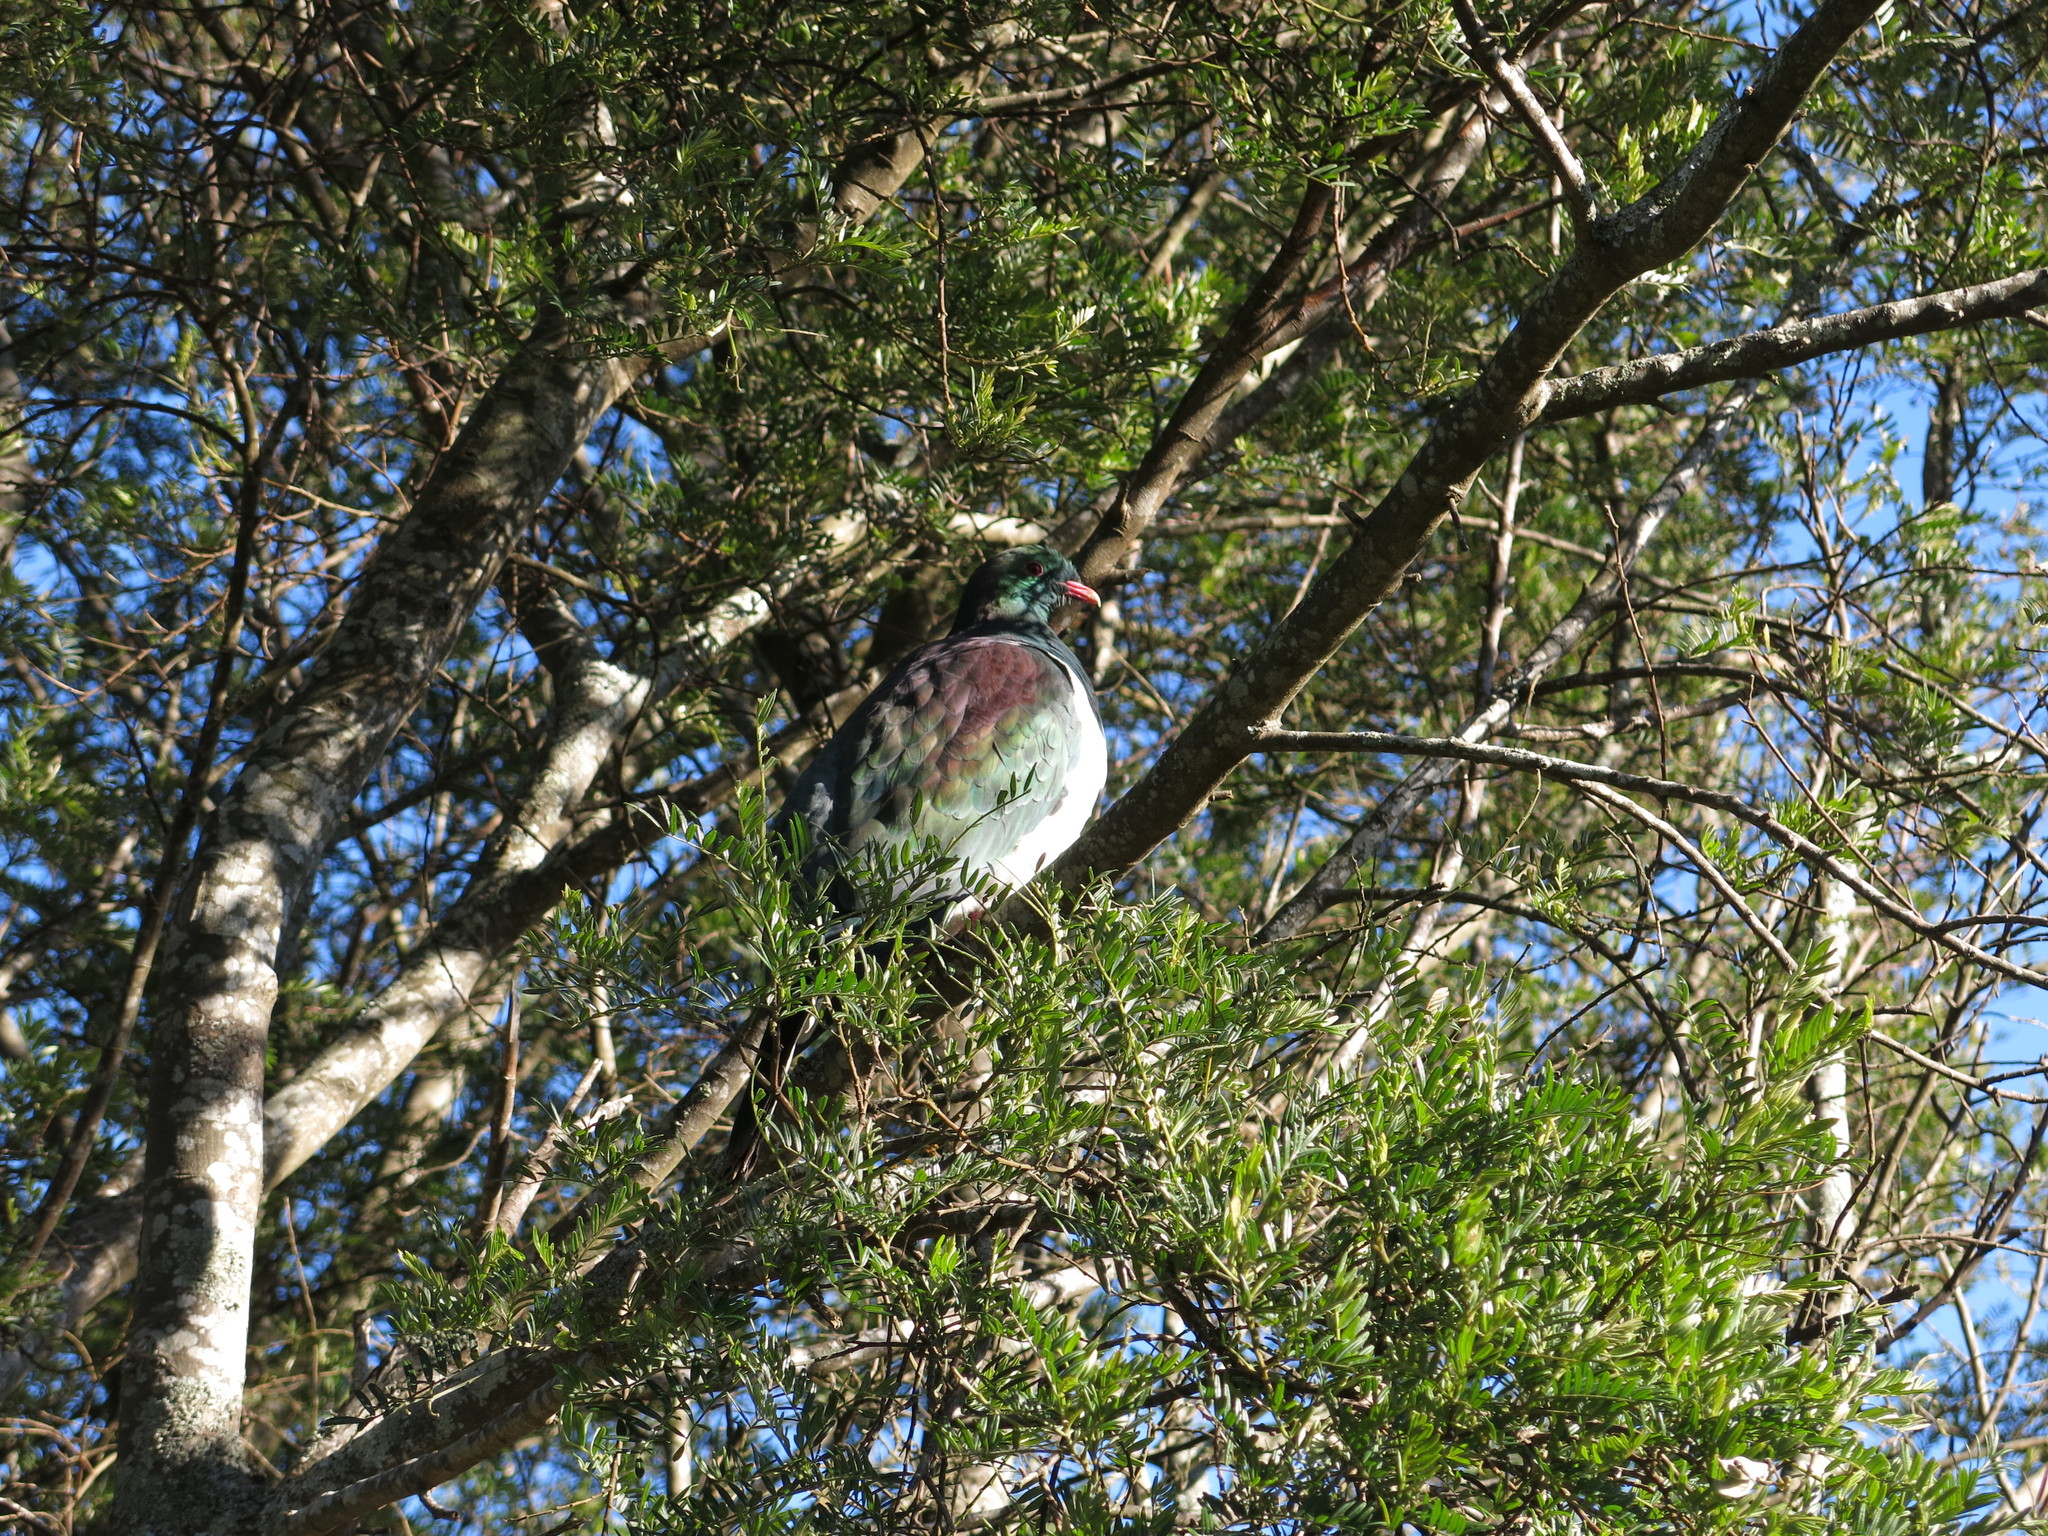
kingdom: Animalia
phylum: Chordata
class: Aves
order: Columbiformes
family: Columbidae
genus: Hemiphaga
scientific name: Hemiphaga novaeseelandiae
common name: New zealand pigeon
